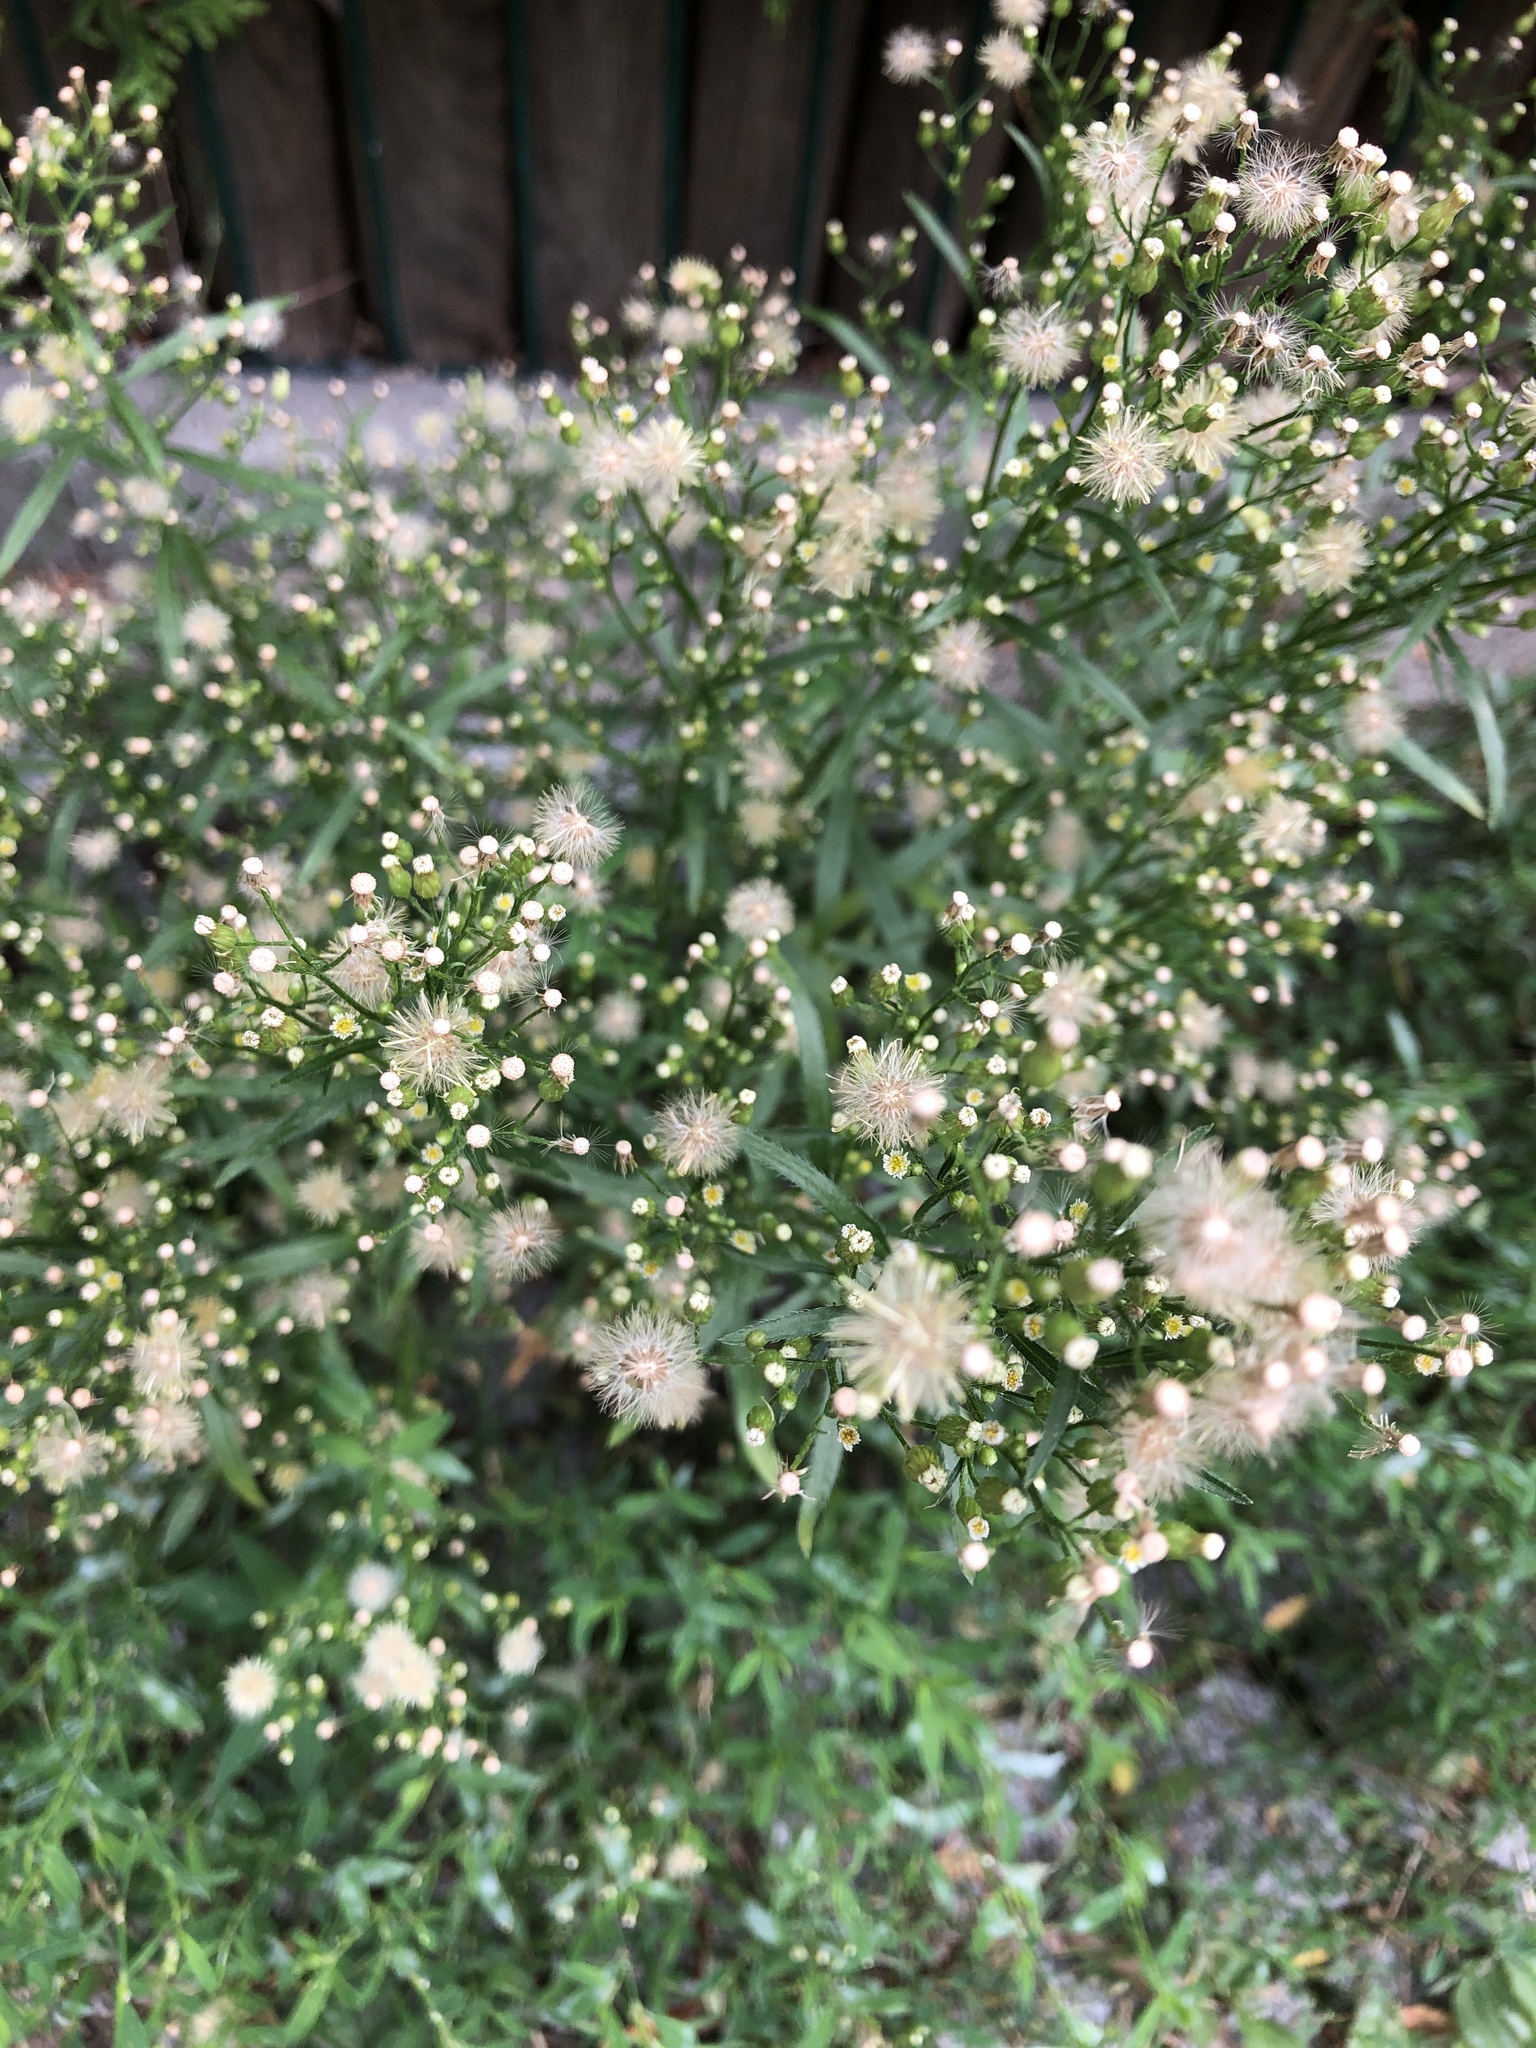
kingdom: Plantae
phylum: Tracheophyta
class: Magnoliopsida
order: Asterales
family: Asteraceae
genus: Erigeron
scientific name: Erigeron canadensis
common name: Canadian fleabane
